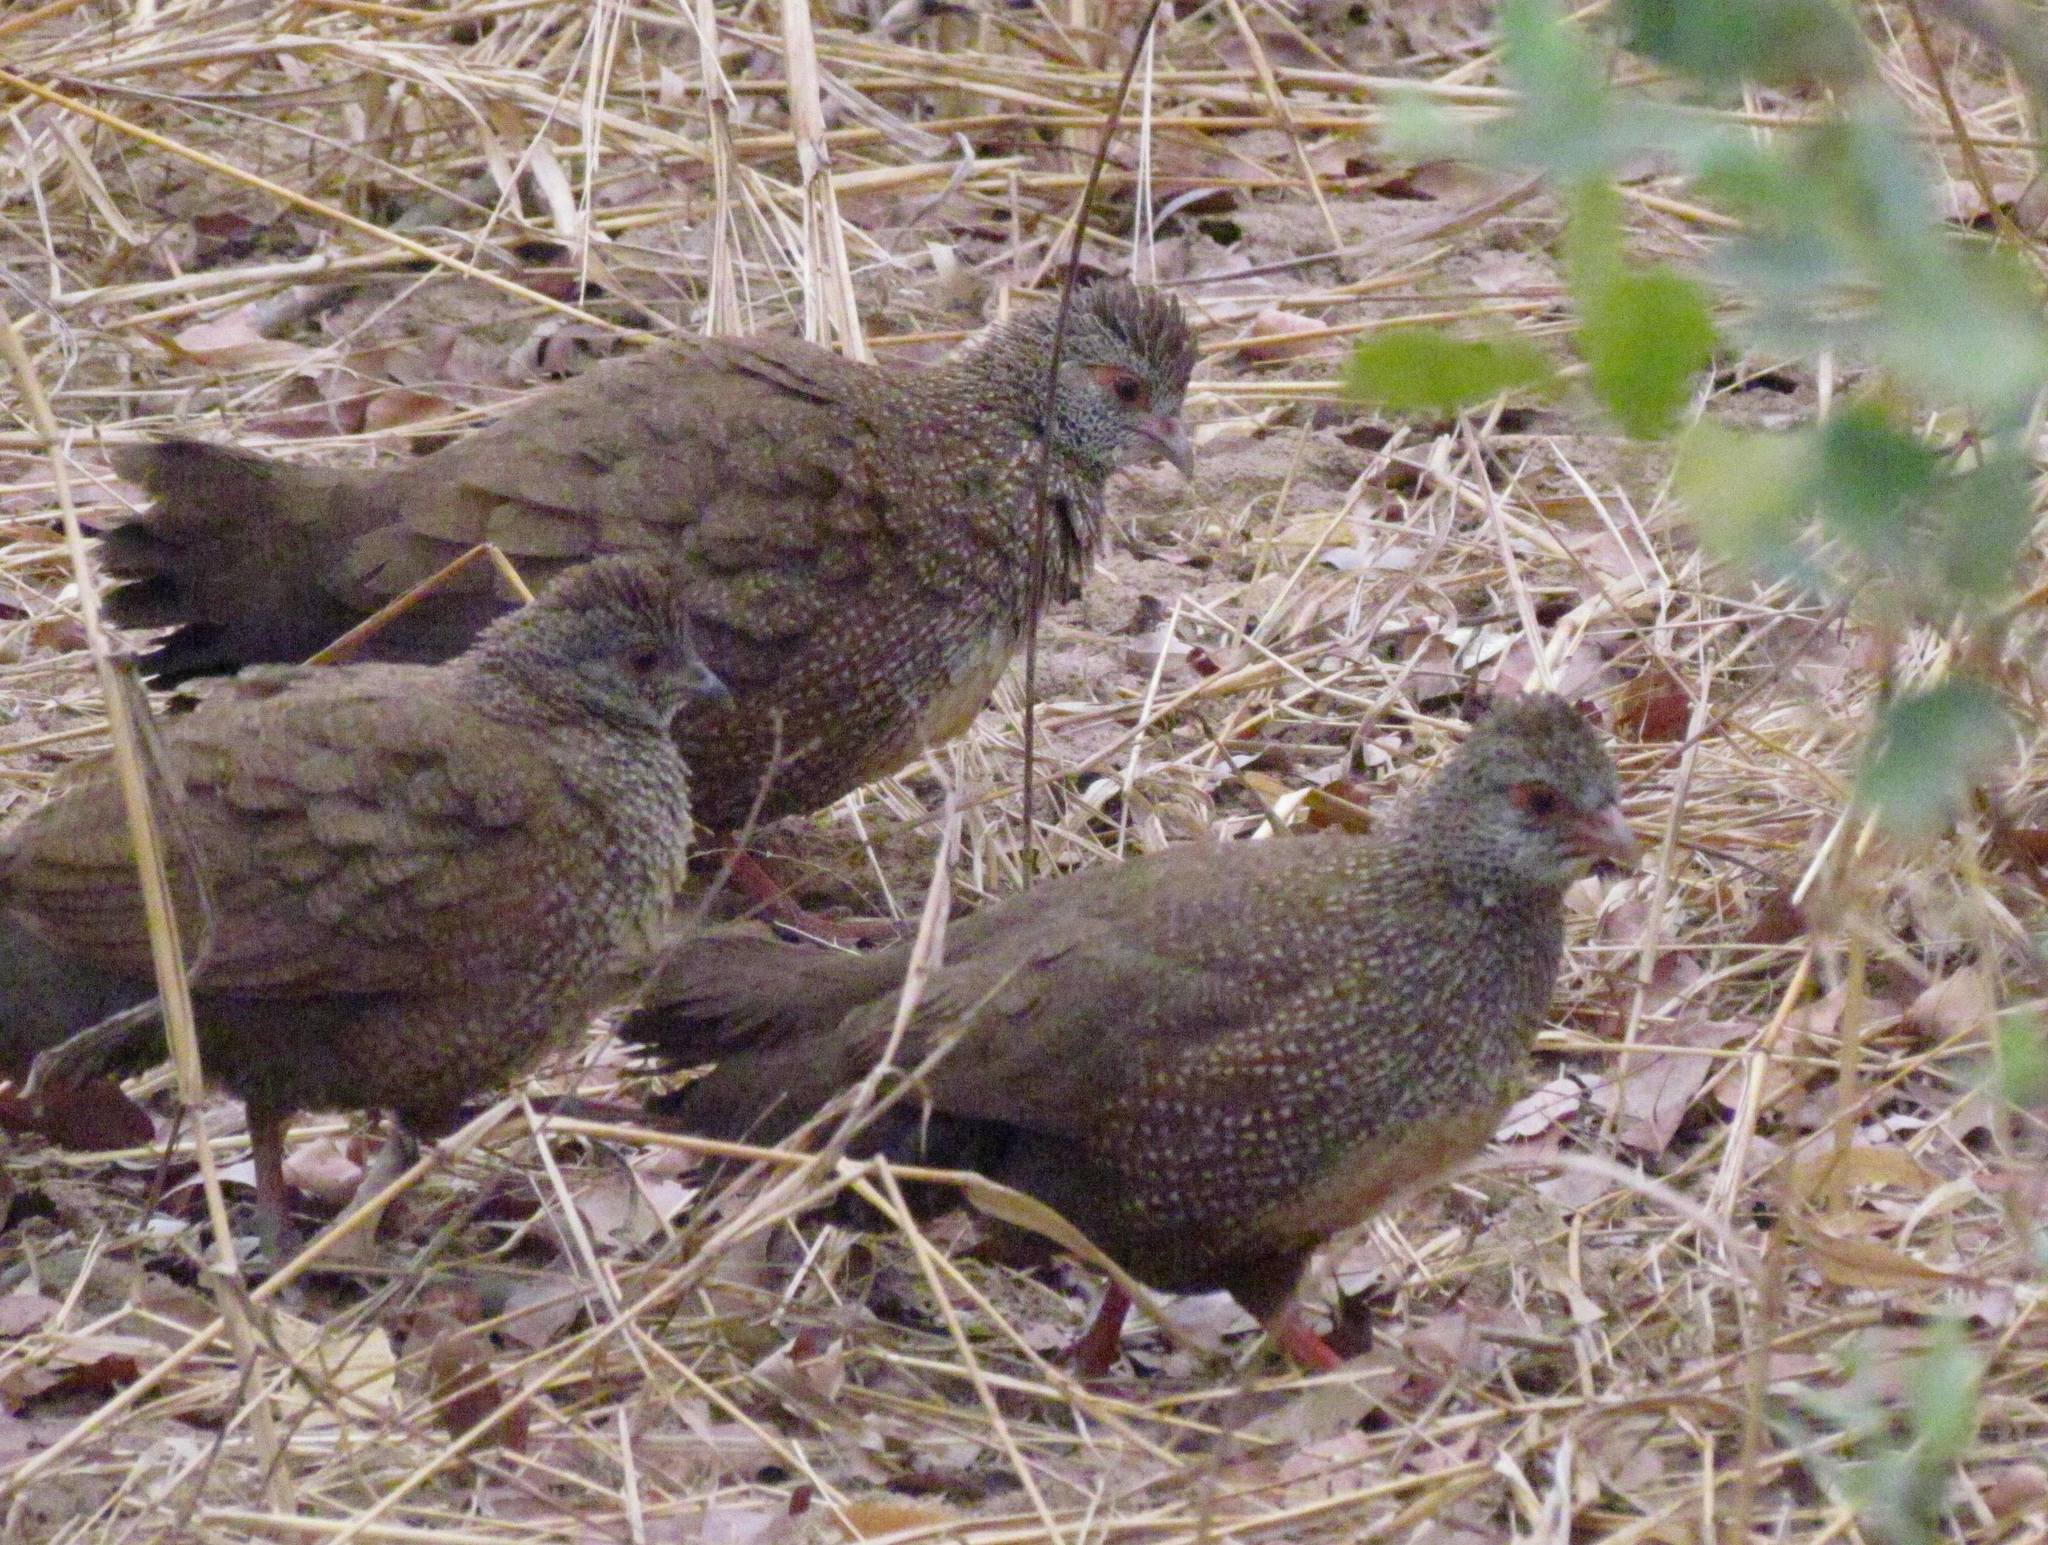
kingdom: Animalia
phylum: Chordata
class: Aves
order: Galliformes
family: Odontophoridae
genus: Ptilopachus
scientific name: Ptilopachus petrosus
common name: Stone partridge
